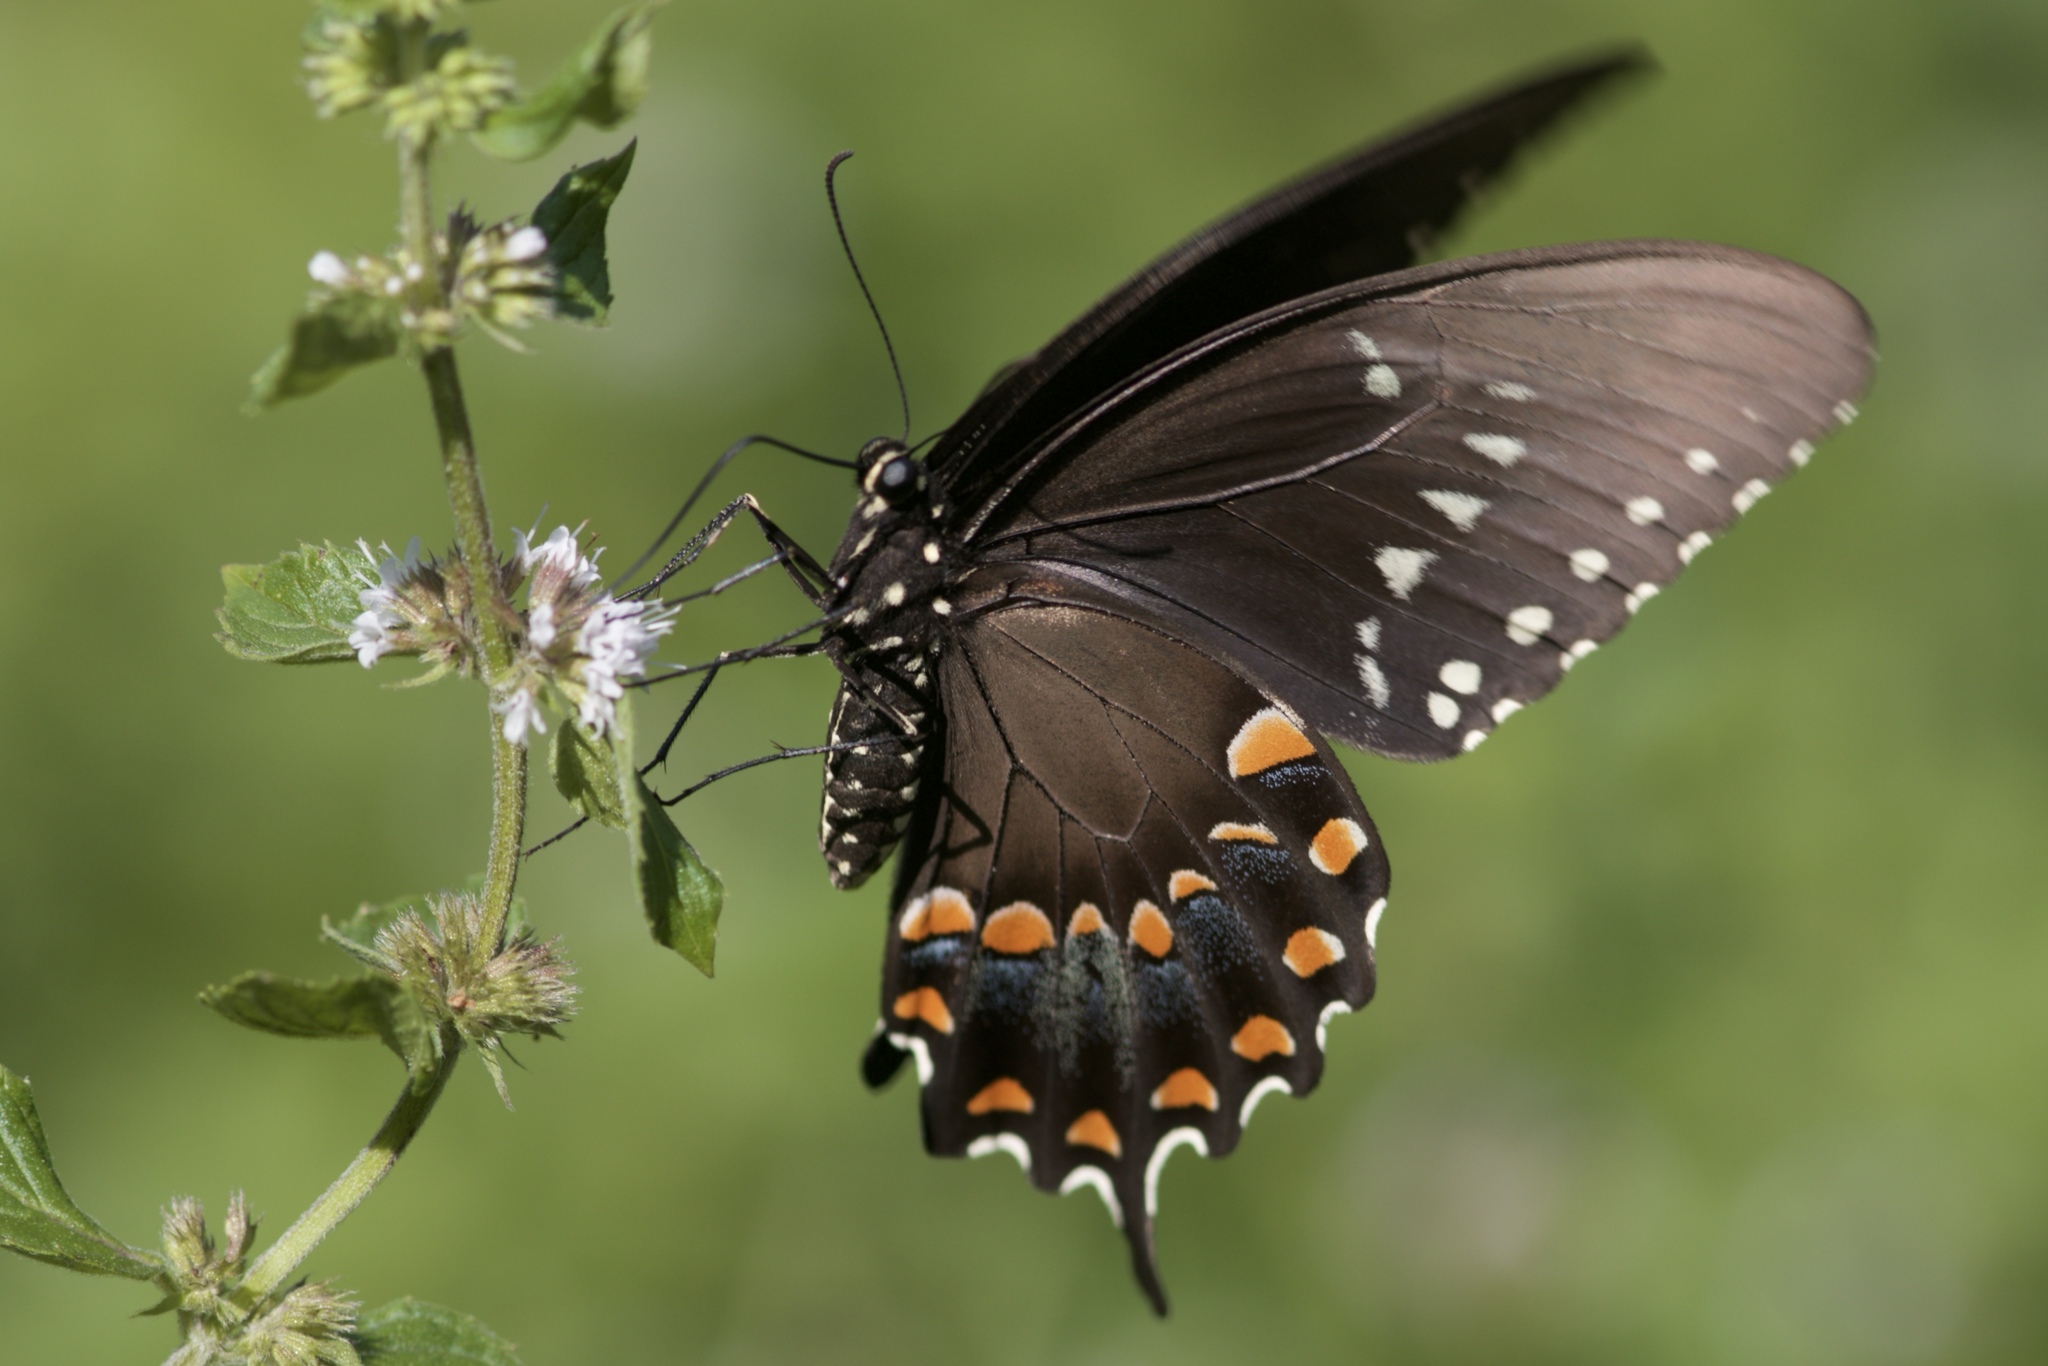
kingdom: Animalia
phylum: Arthropoda
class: Insecta
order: Lepidoptera
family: Papilionidae
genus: Papilio
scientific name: Papilio troilus
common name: Spicebush swallowtail
